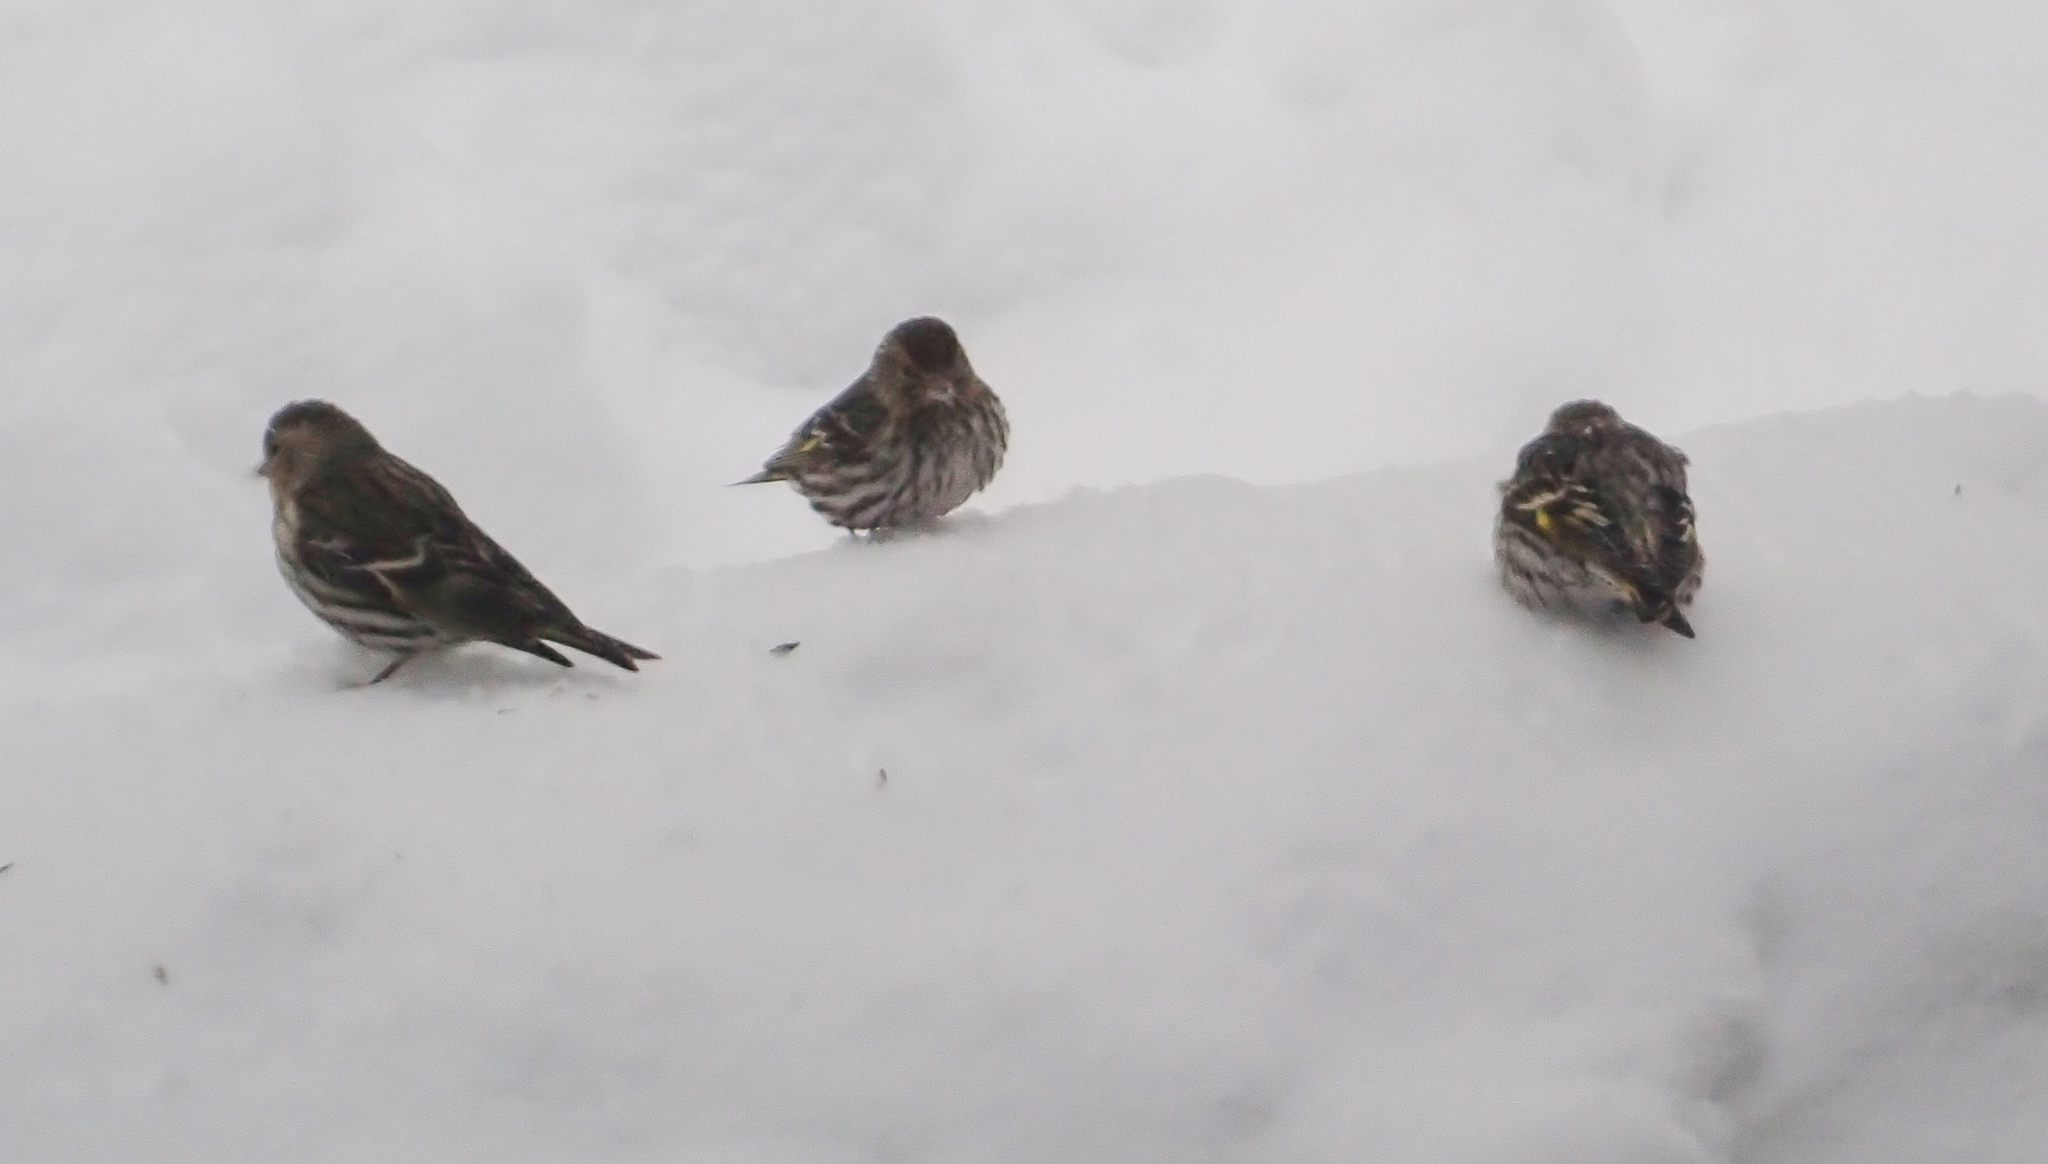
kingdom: Animalia
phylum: Chordata
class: Aves
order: Passeriformes
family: Fringillidae
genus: Spinus
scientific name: Spinus pinus
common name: Pine siskin
